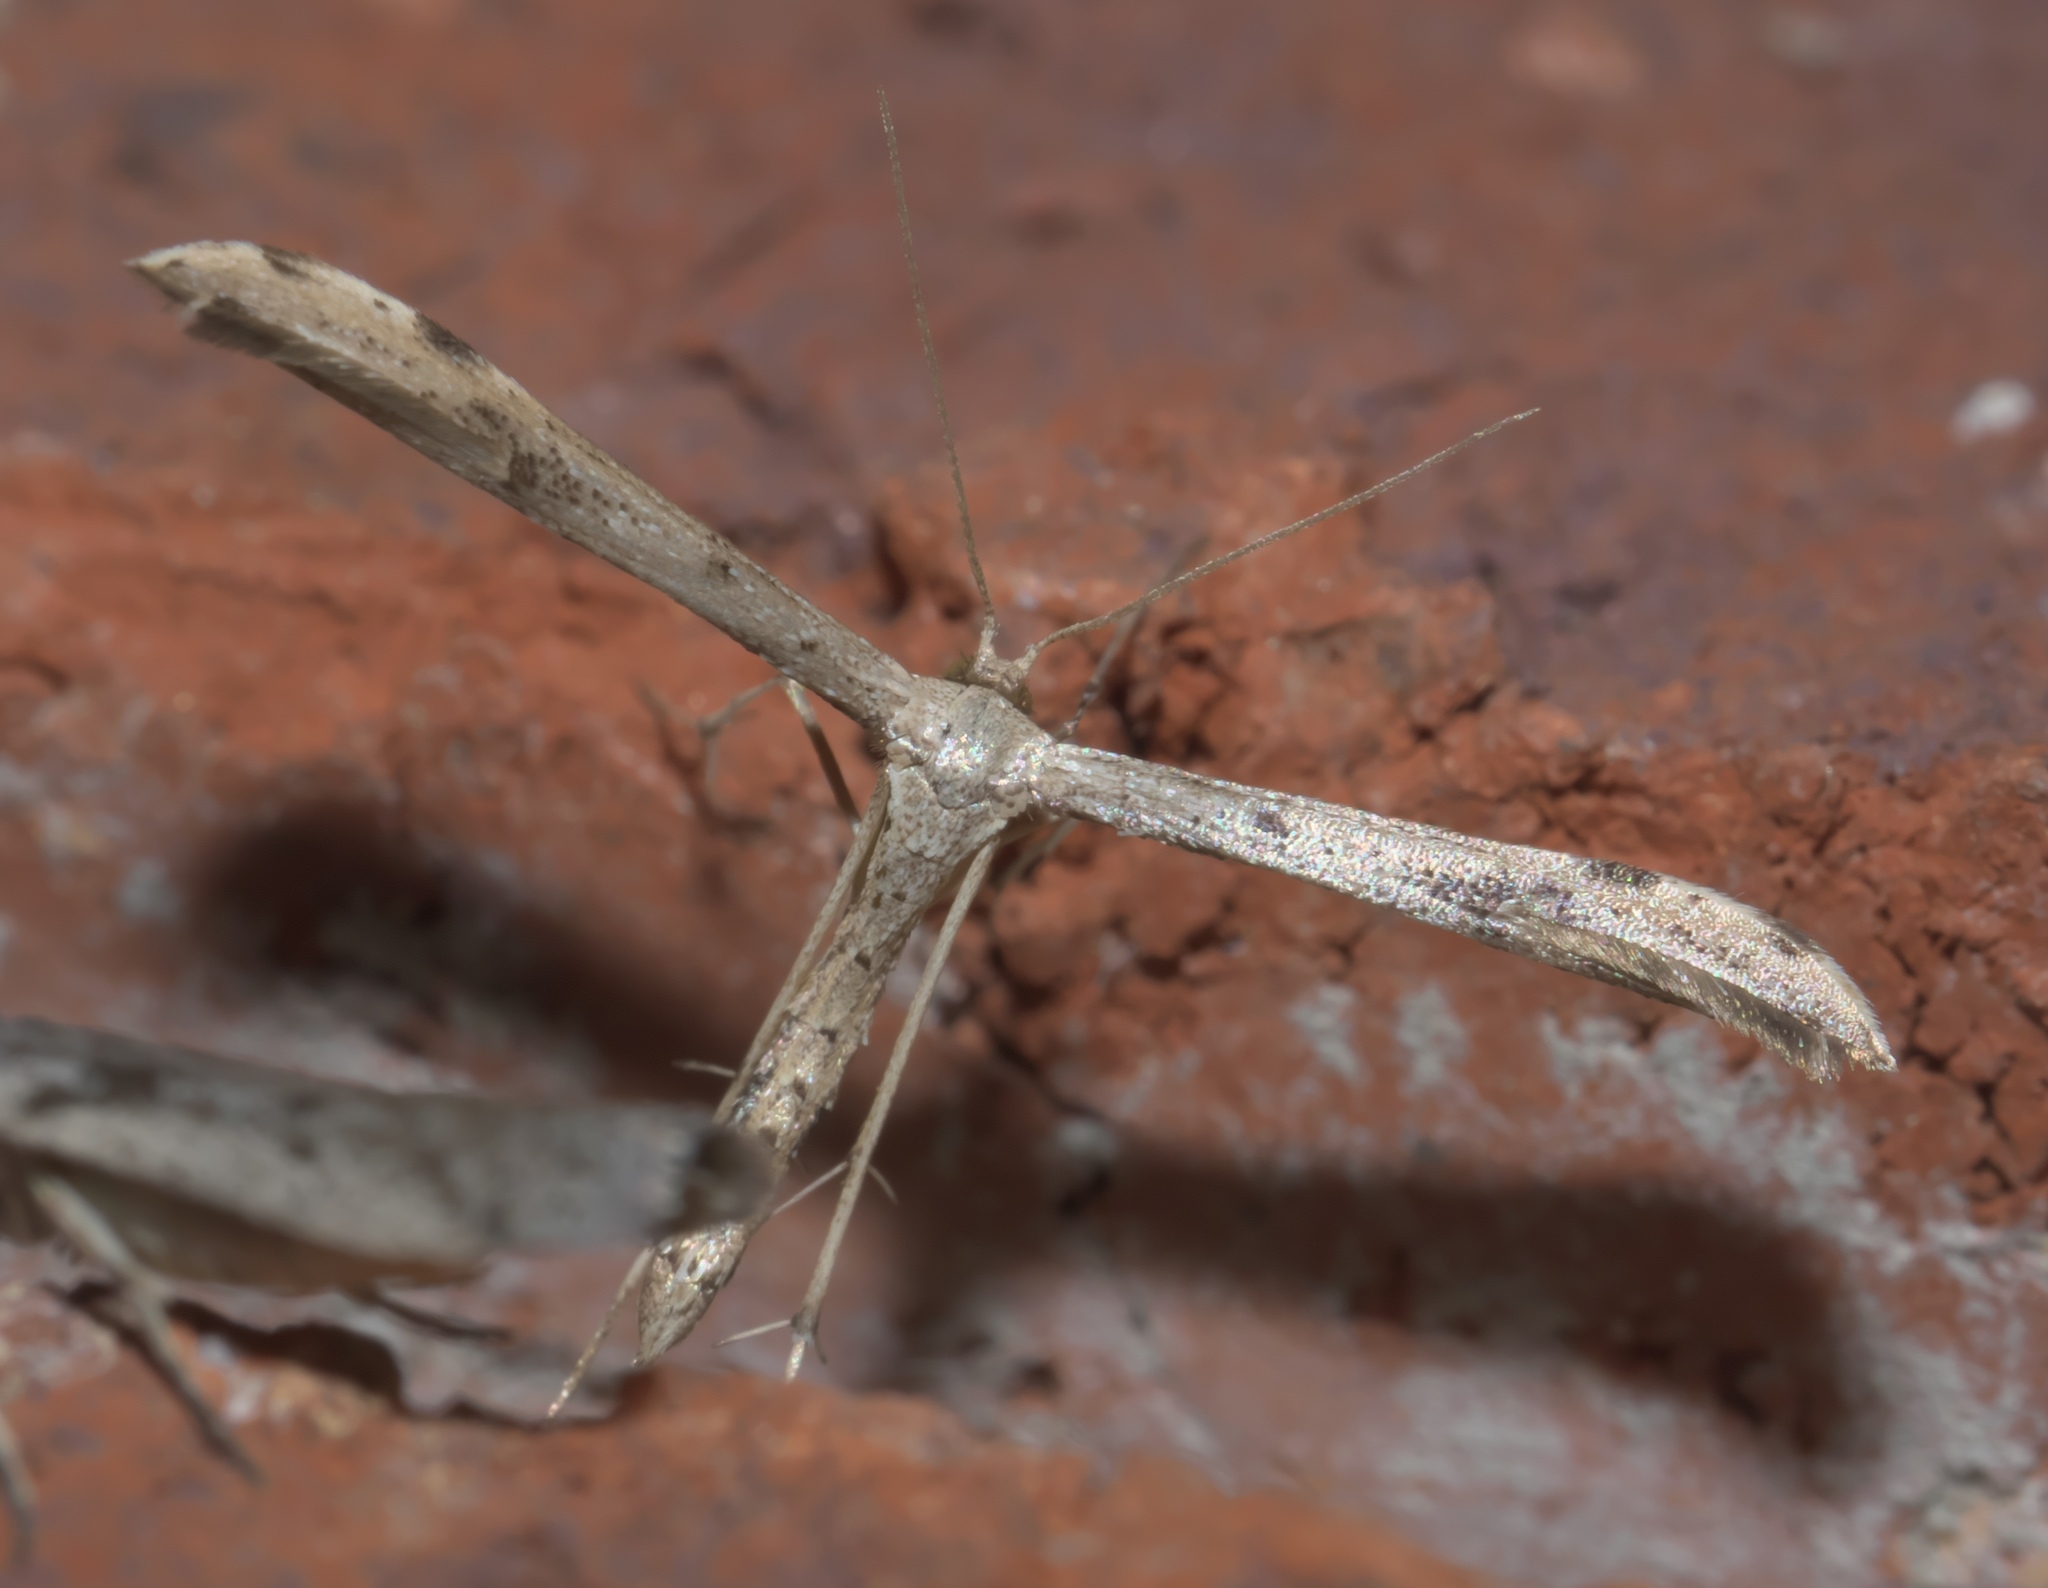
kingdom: Animalia
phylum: Arthropoda
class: Insecta
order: Lepidoptera
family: Pterophoridae
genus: Adaina
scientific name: Adaina ambrosiae
